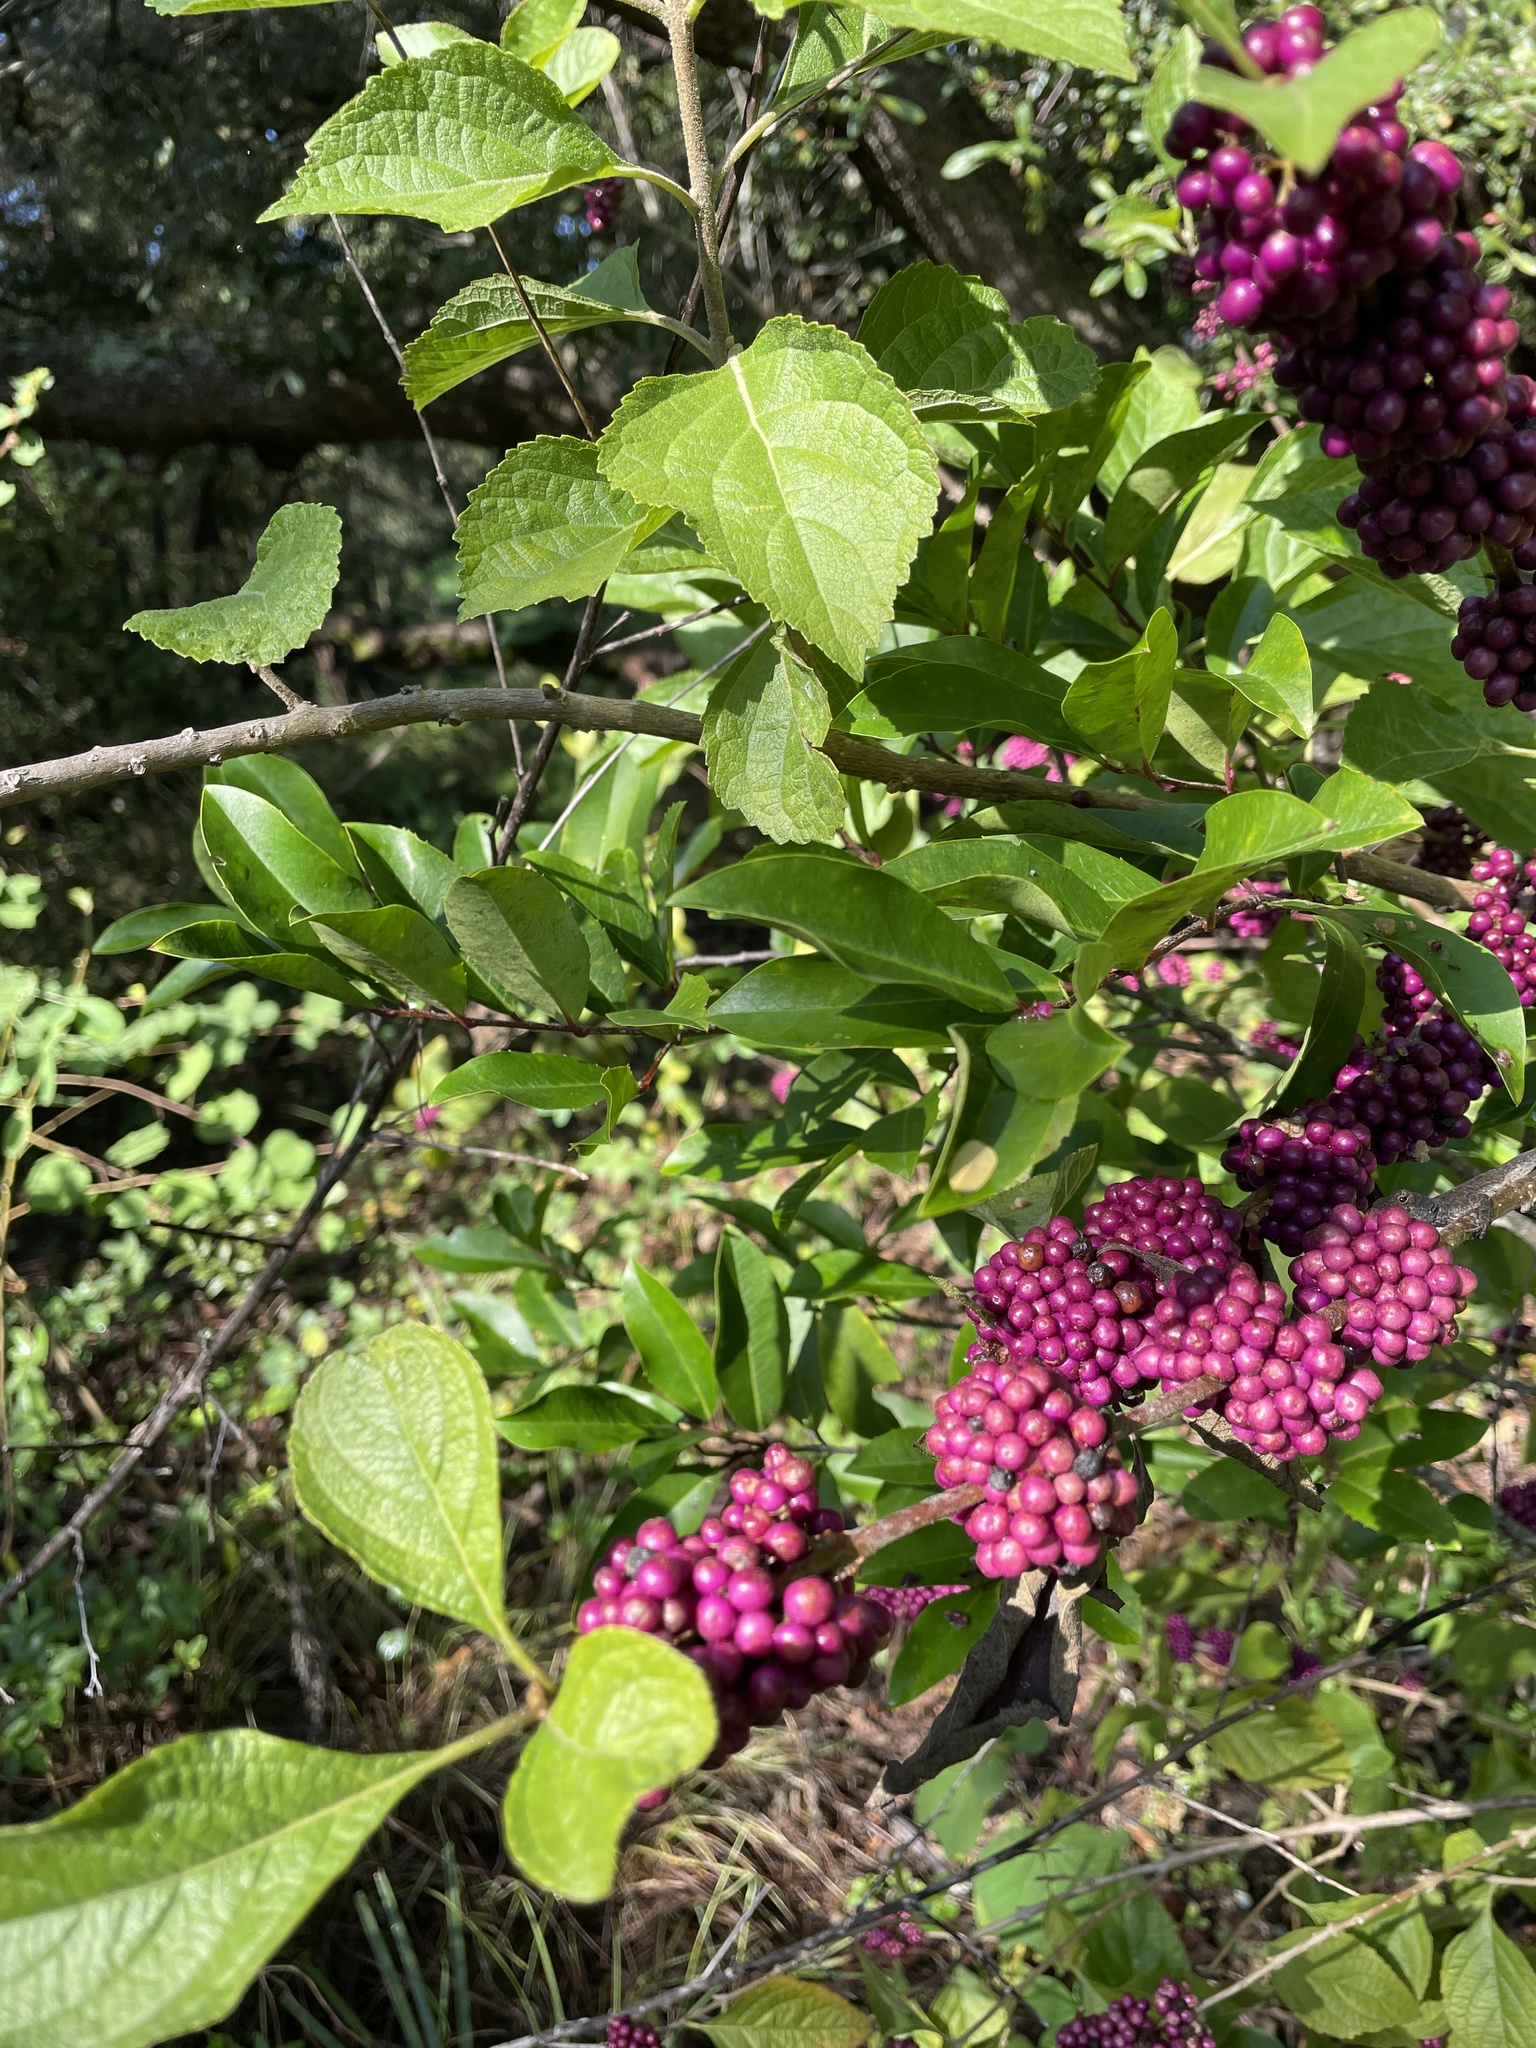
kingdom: Plantae
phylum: Tracheophyta
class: Magnoliopsida
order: Lamiales
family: Lamiaceae
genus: Callicarpa
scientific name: Callicarpa americana
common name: American beautyberry
